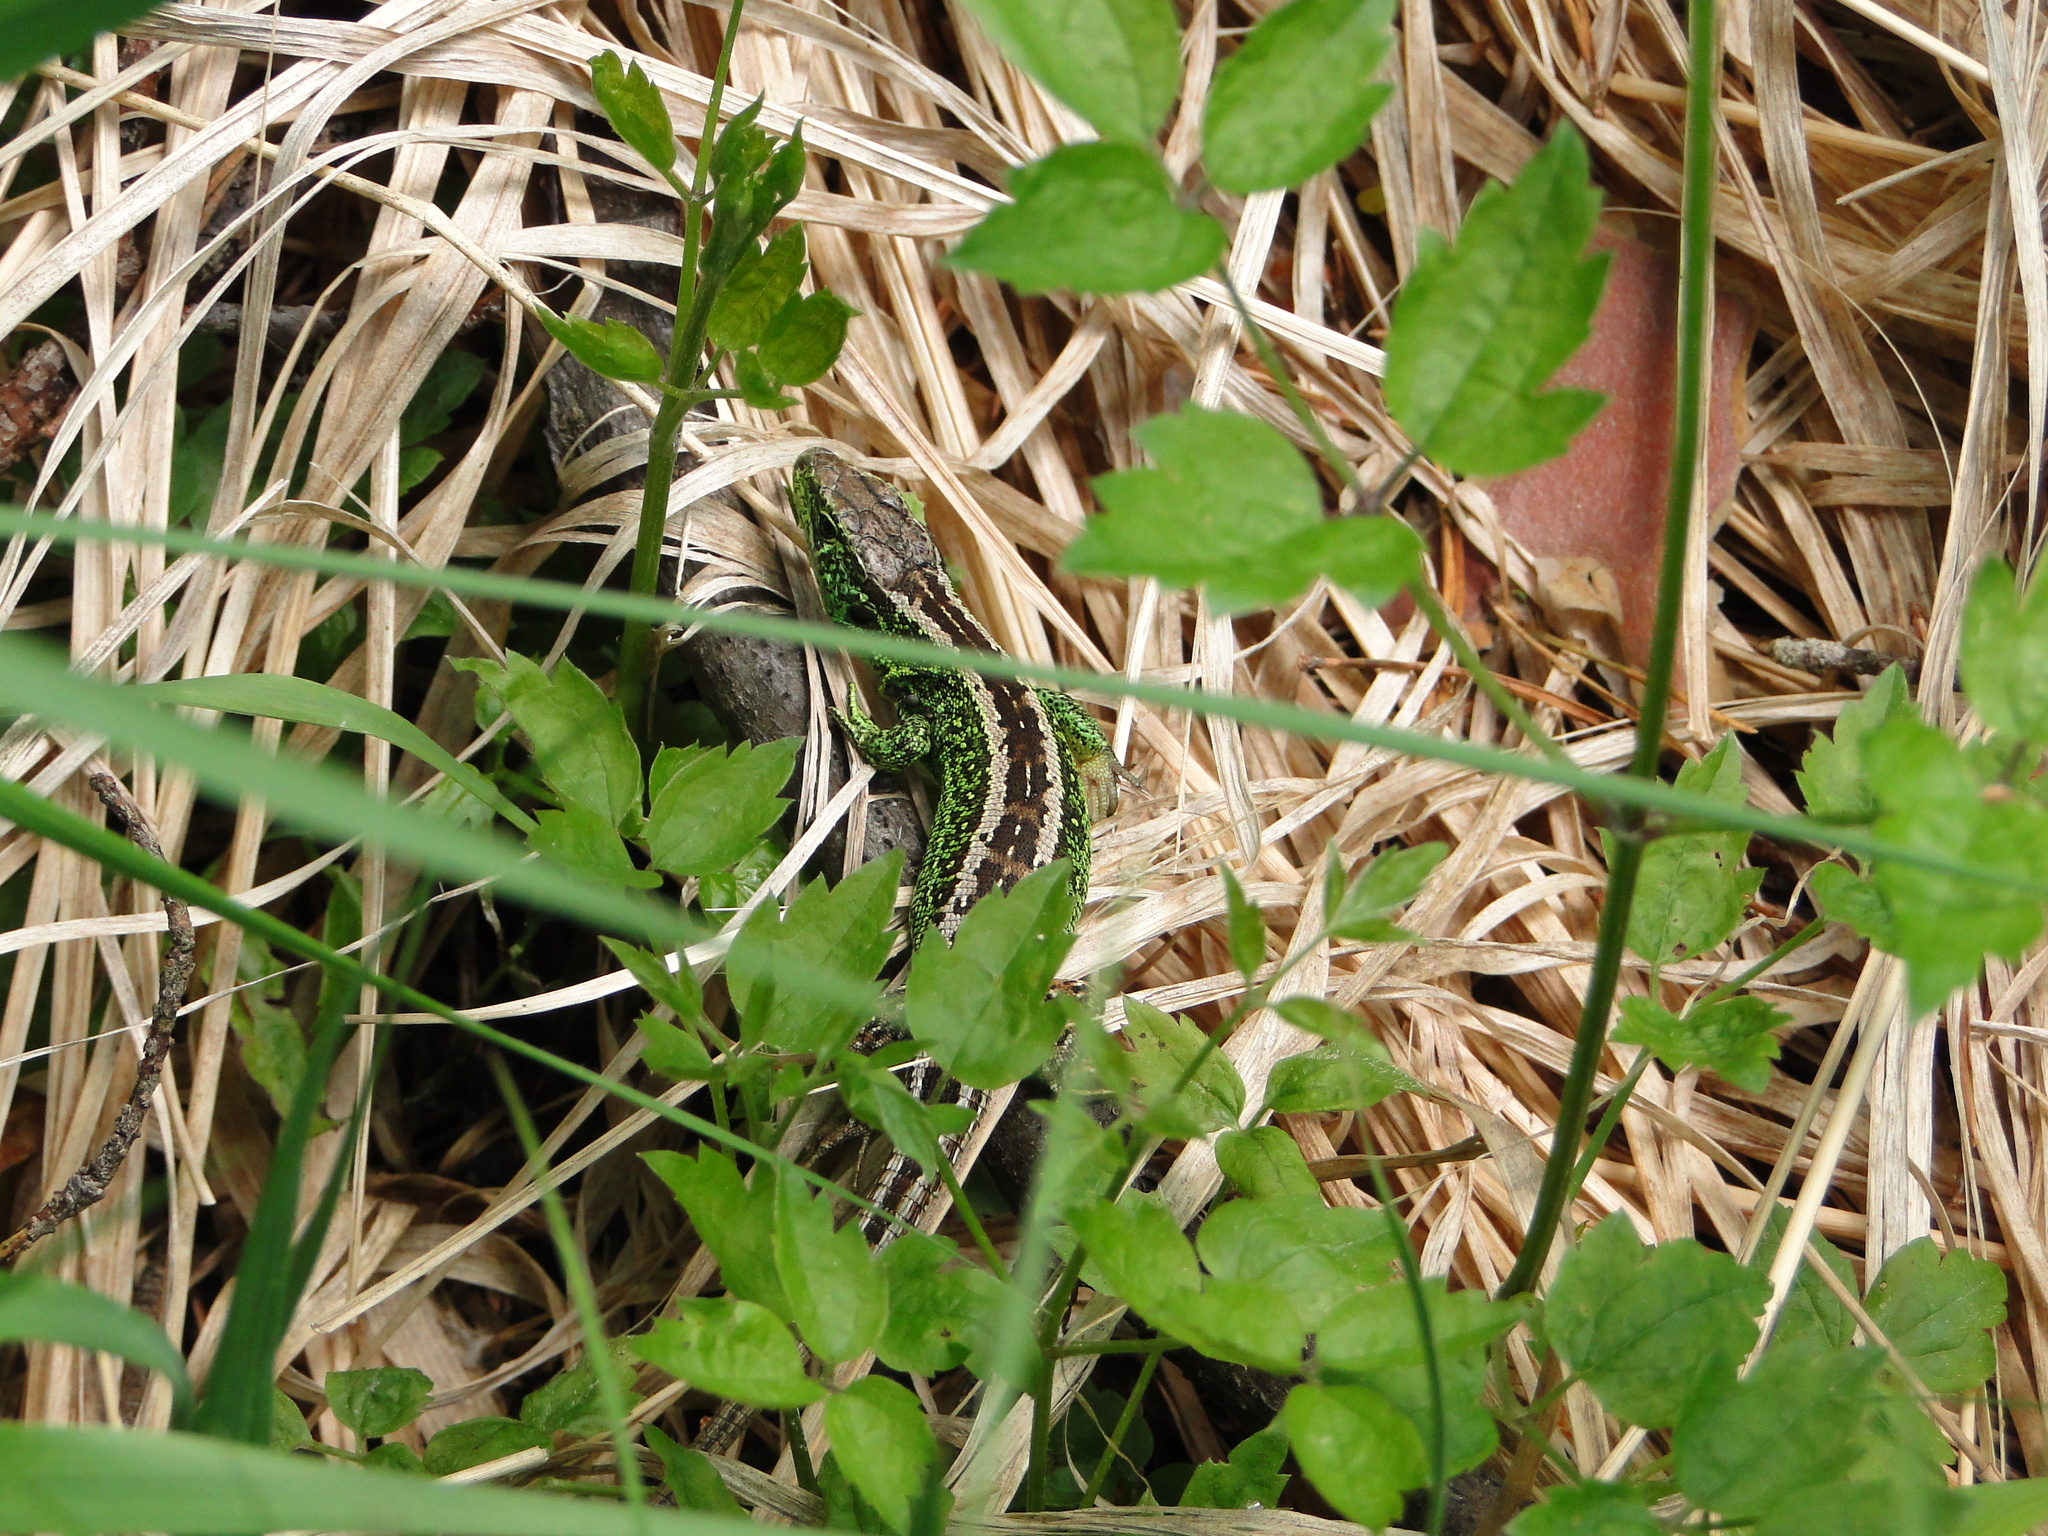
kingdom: Animalia
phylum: Chordata
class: Squamata
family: Lacertidae
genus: Lacerta
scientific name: Lacerta agilis
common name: Sand lizard
